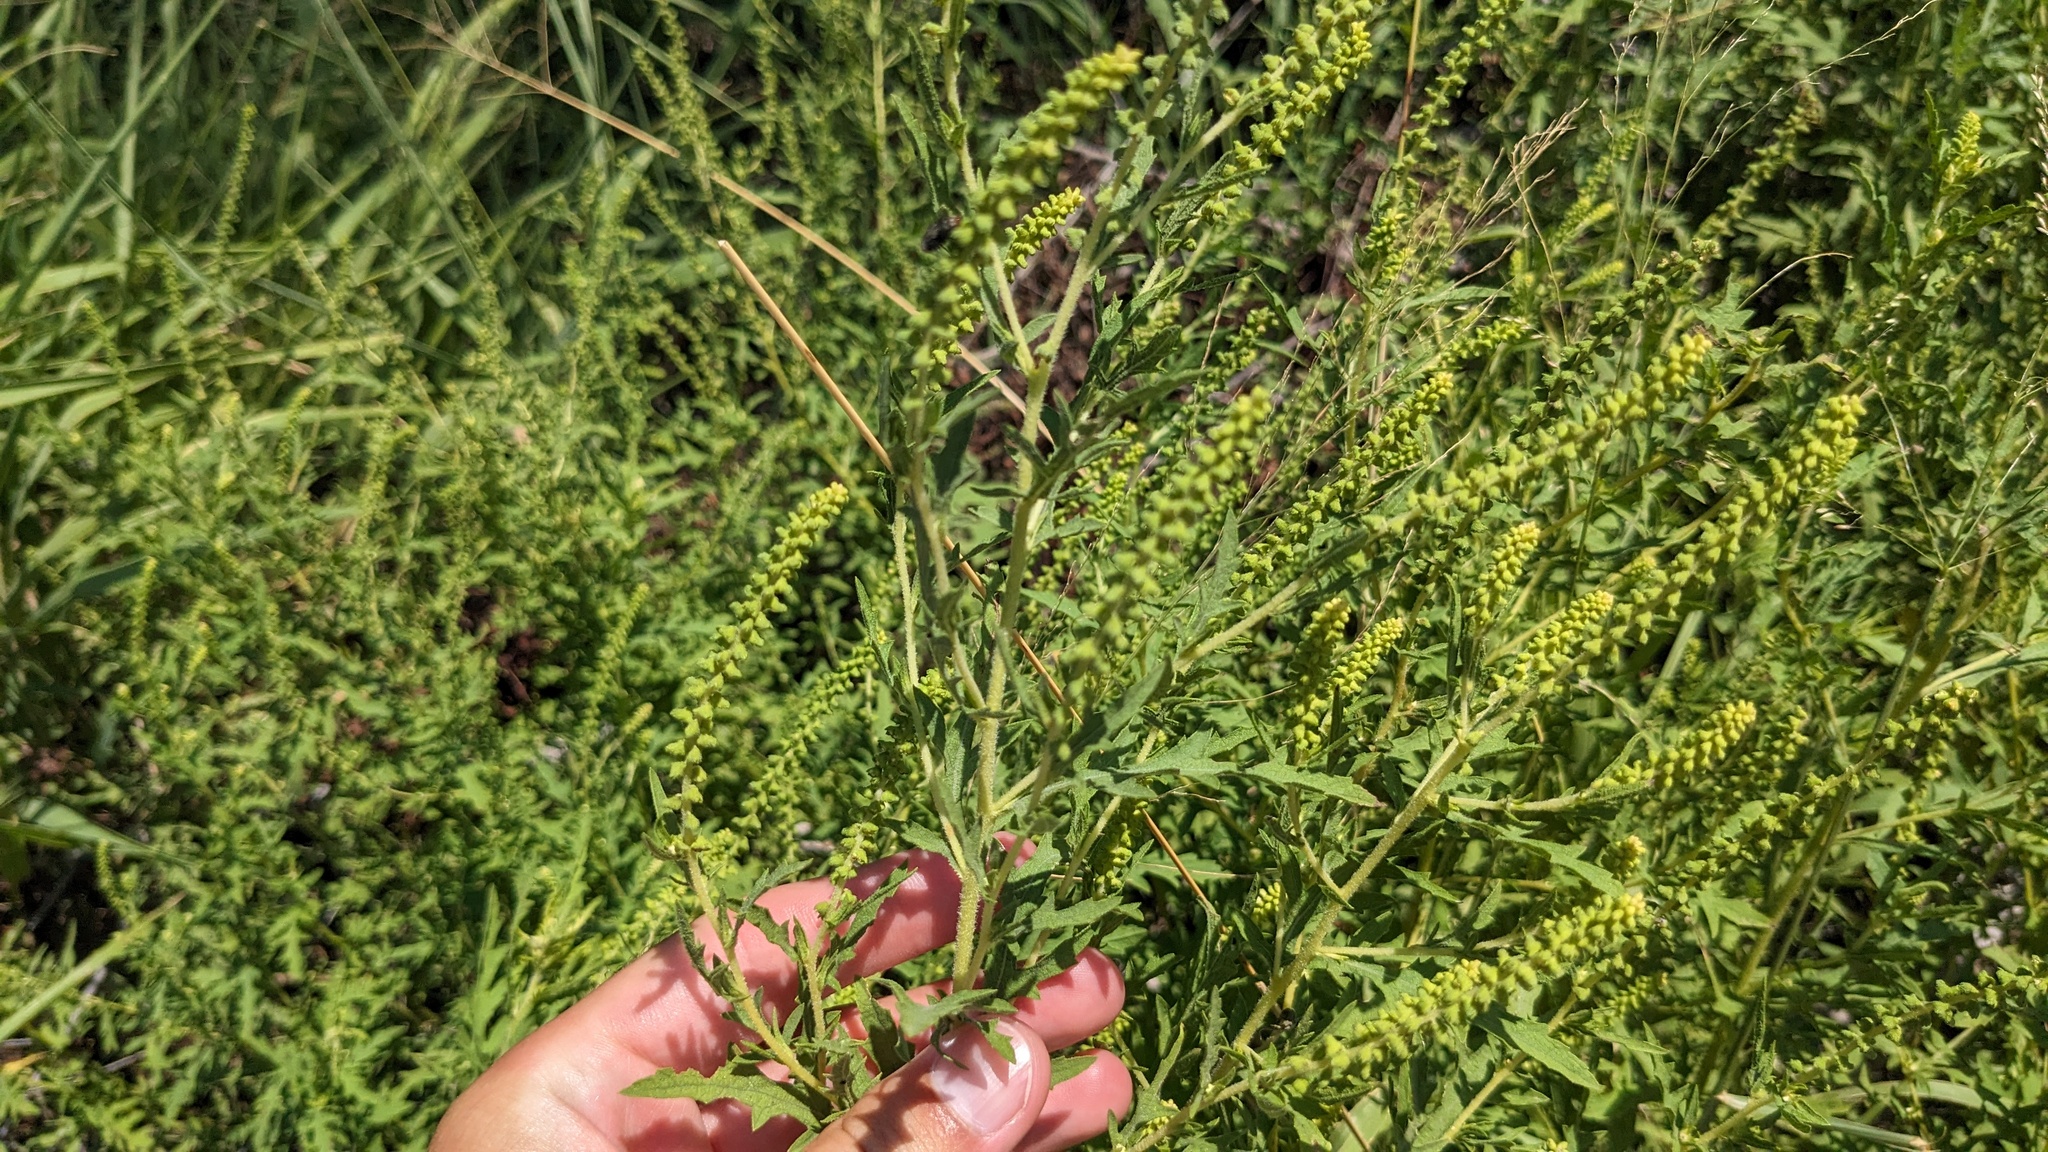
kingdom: Plantae
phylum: Tracheophyta
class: Magnoliopsida
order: Asterales
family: Asteraceae
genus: Ambrosia
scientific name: Ambrosia psilostachya
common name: Perennial ragweed
